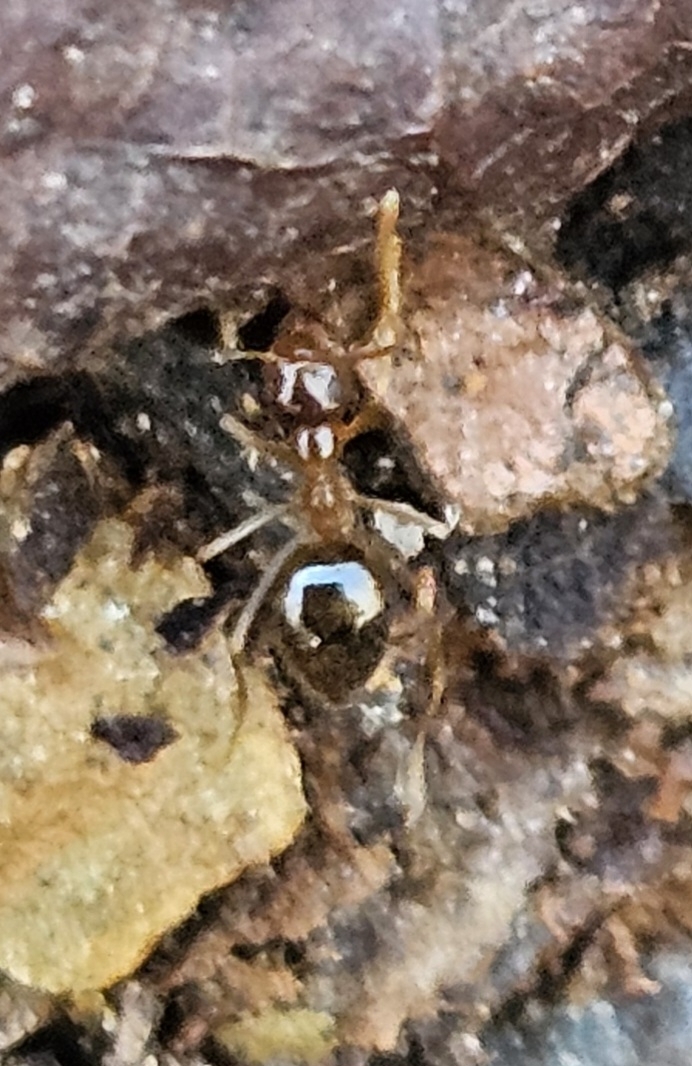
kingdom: Animalia
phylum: Arthropoda
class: Insecta
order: Hymenoptera
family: Formicidae
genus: Prenolepis
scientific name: Prenolepis imparis
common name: Small honey ant
